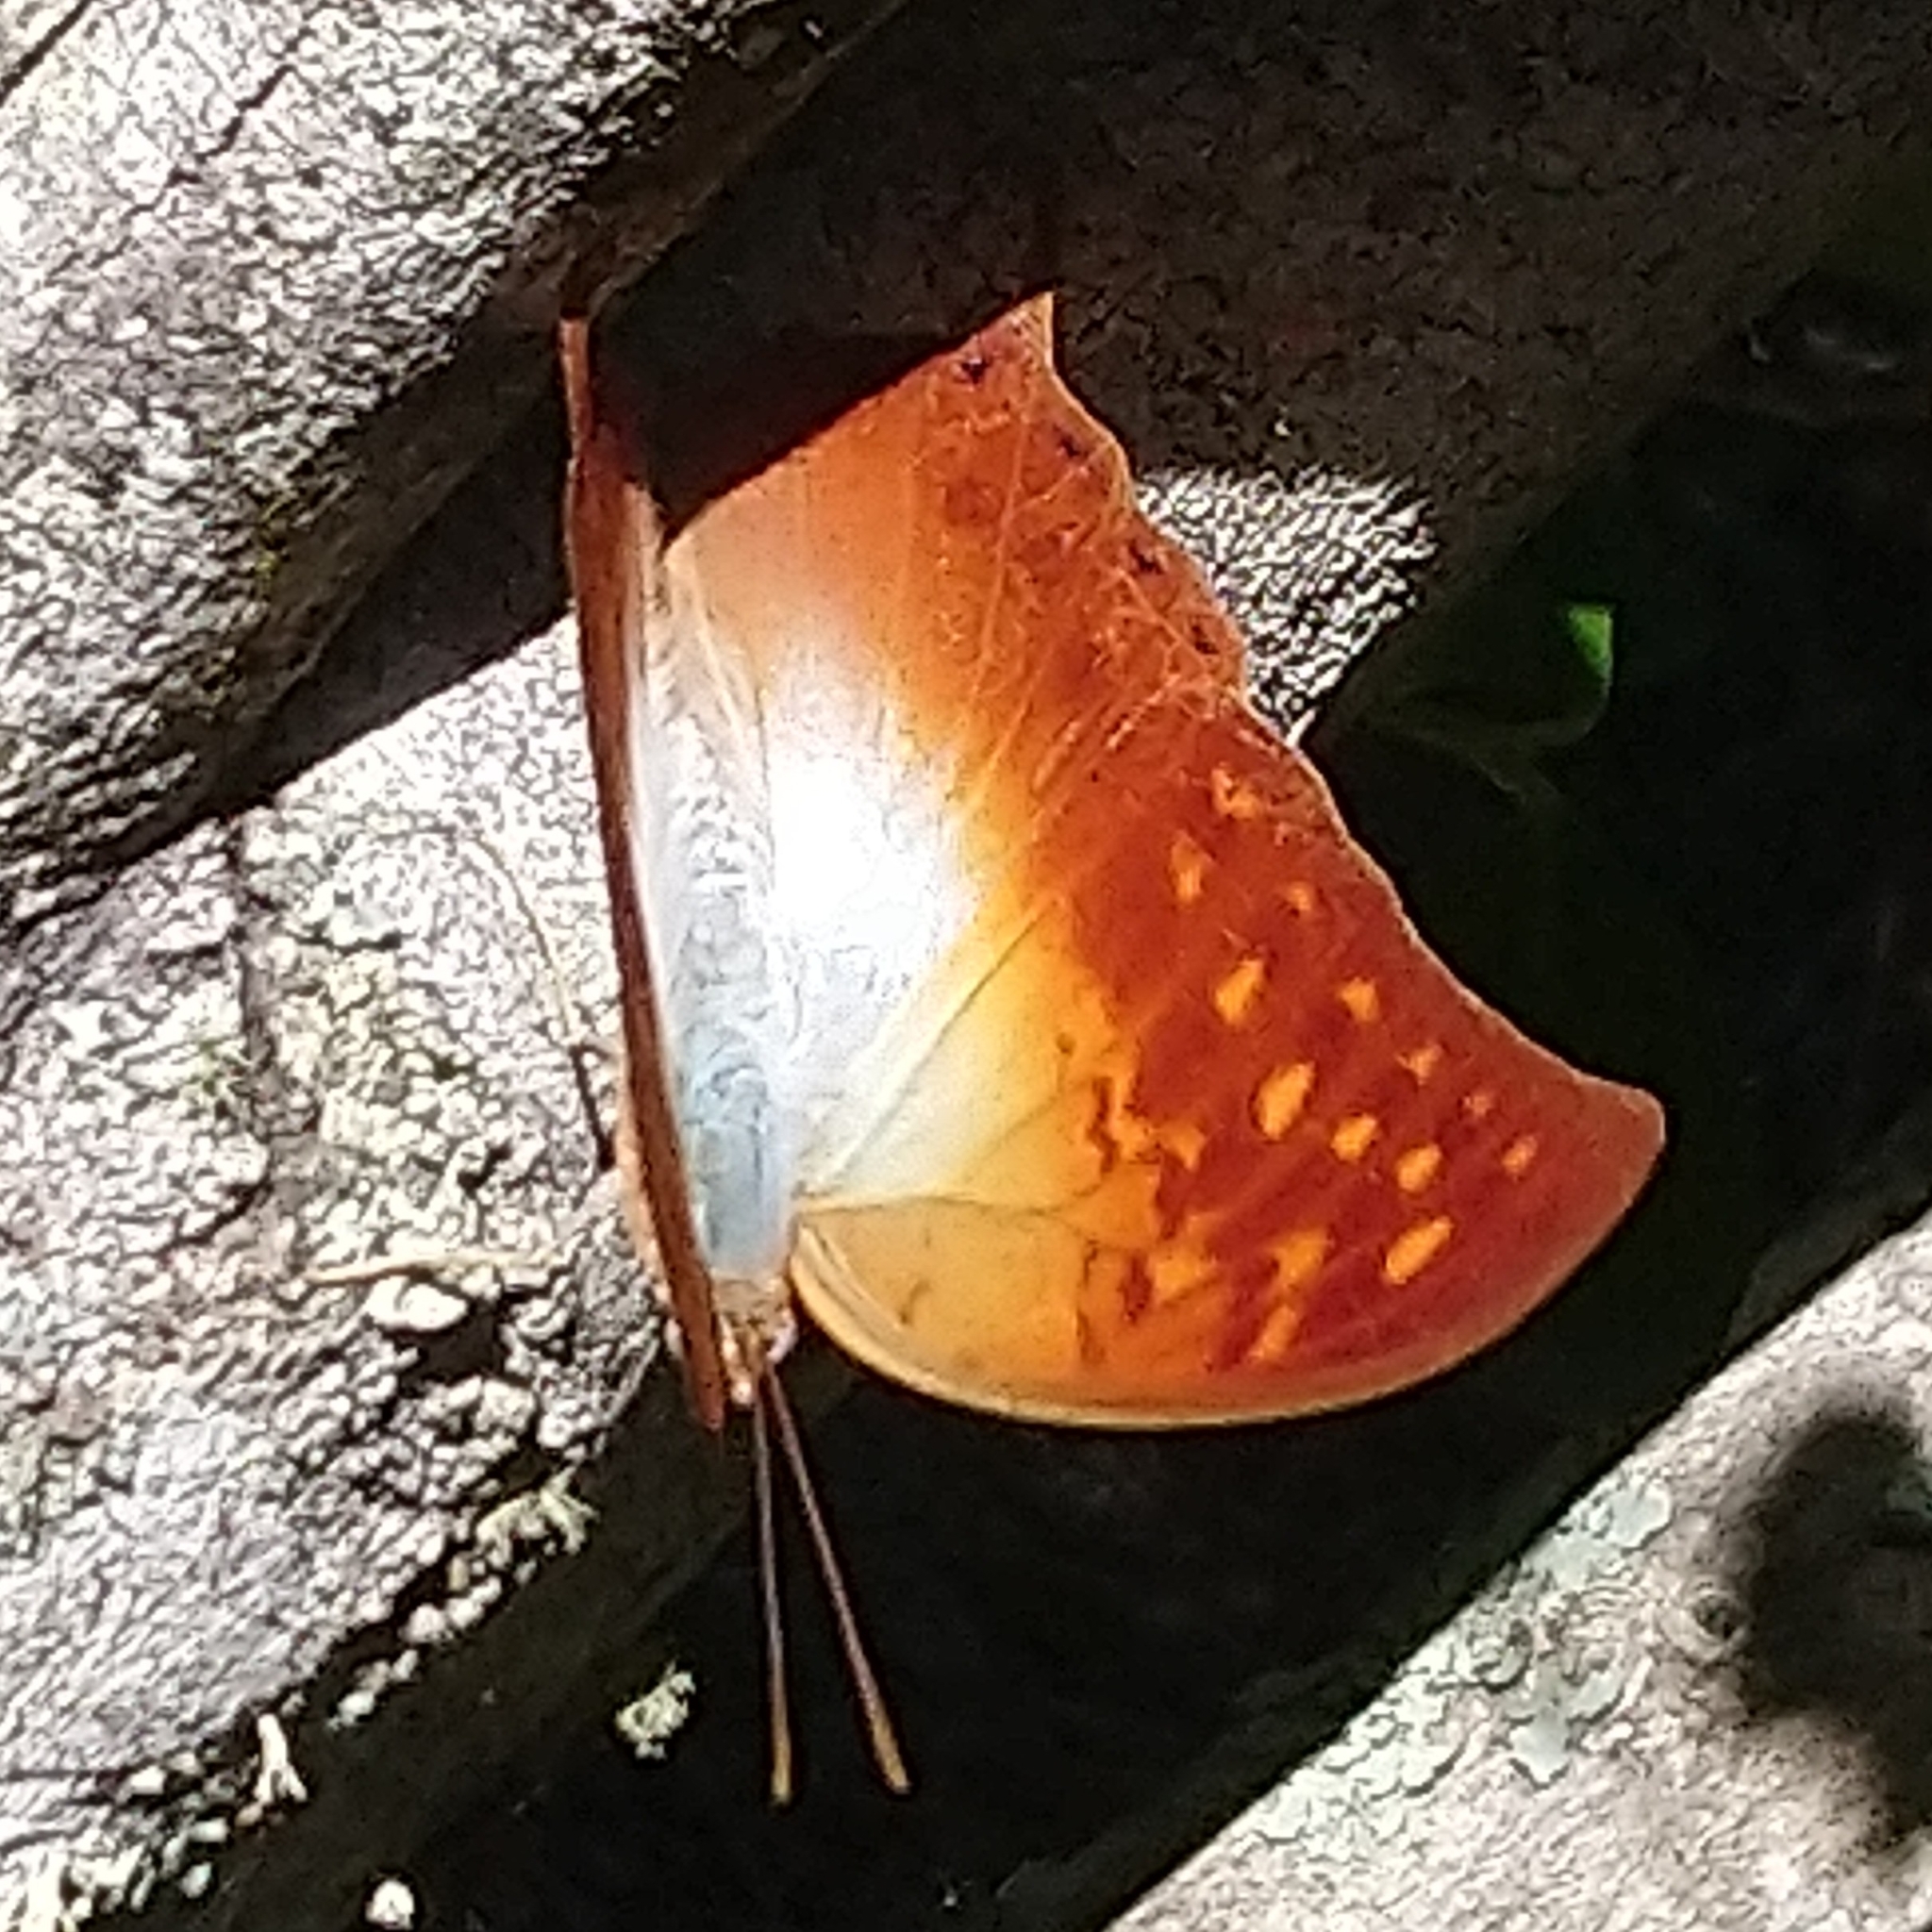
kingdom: Animalia
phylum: Arthropoda
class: Insecta
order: Lepidoptera
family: Nymphalidae
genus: Charaxes
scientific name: Charaxes varanes
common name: Common pearl charaxes
